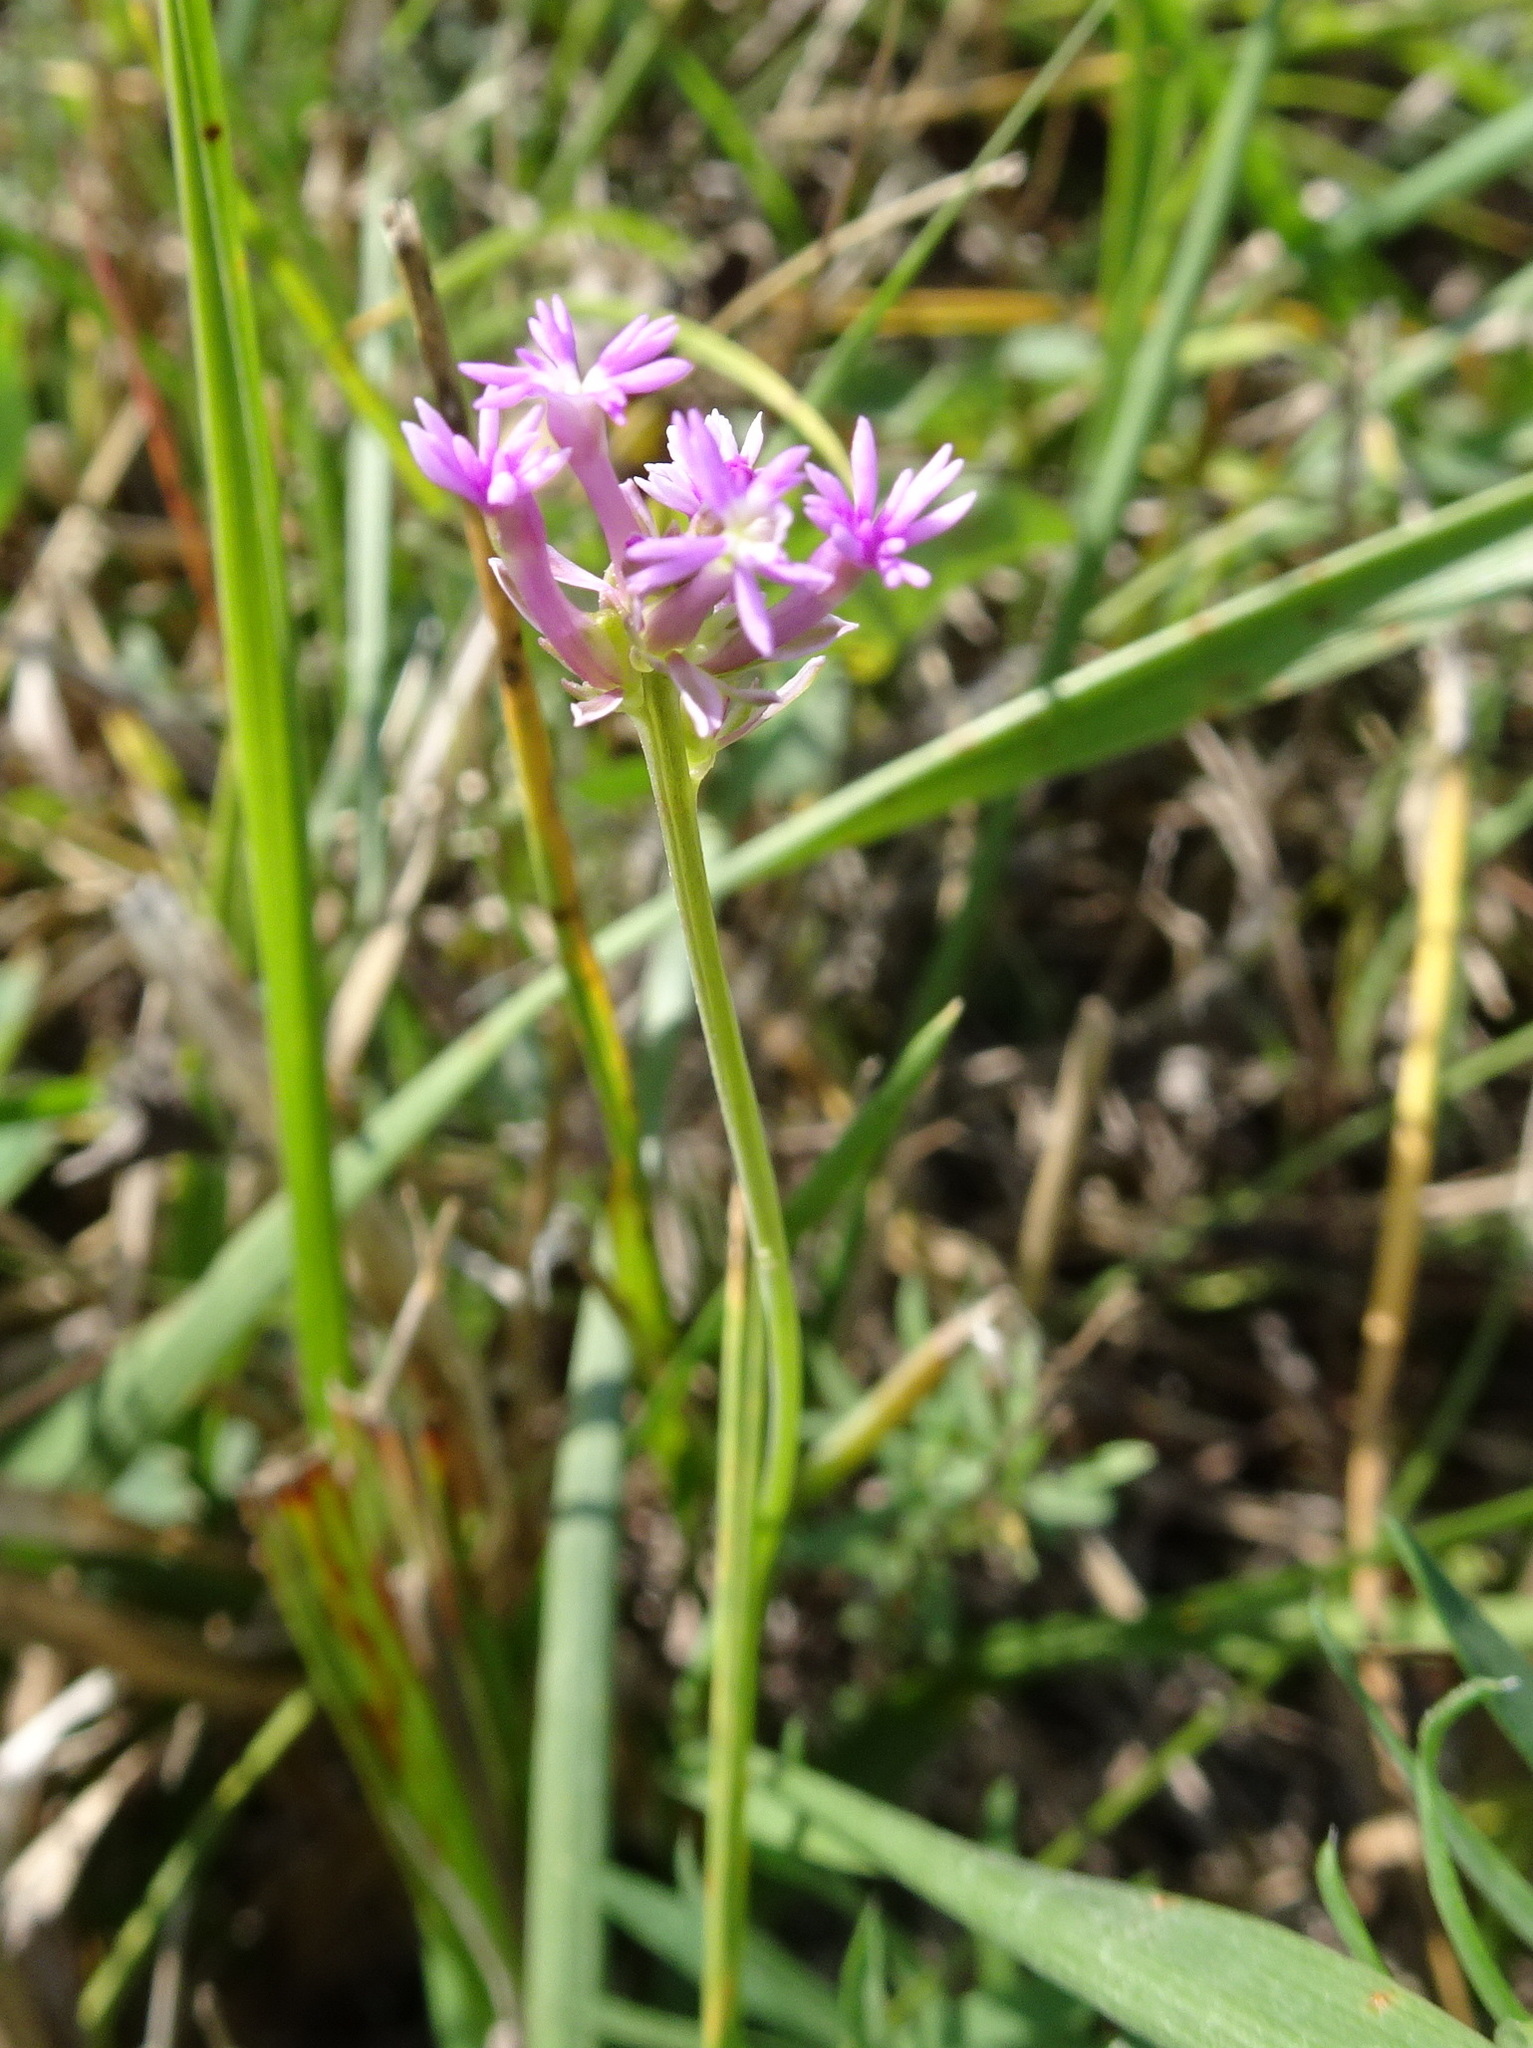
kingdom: Plantae
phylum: Tracheophyta
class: Magnoliopsida
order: Fabales
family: Polygalaceae
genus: Polygala
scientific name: Polygala incarnata
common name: Pink milkwort
